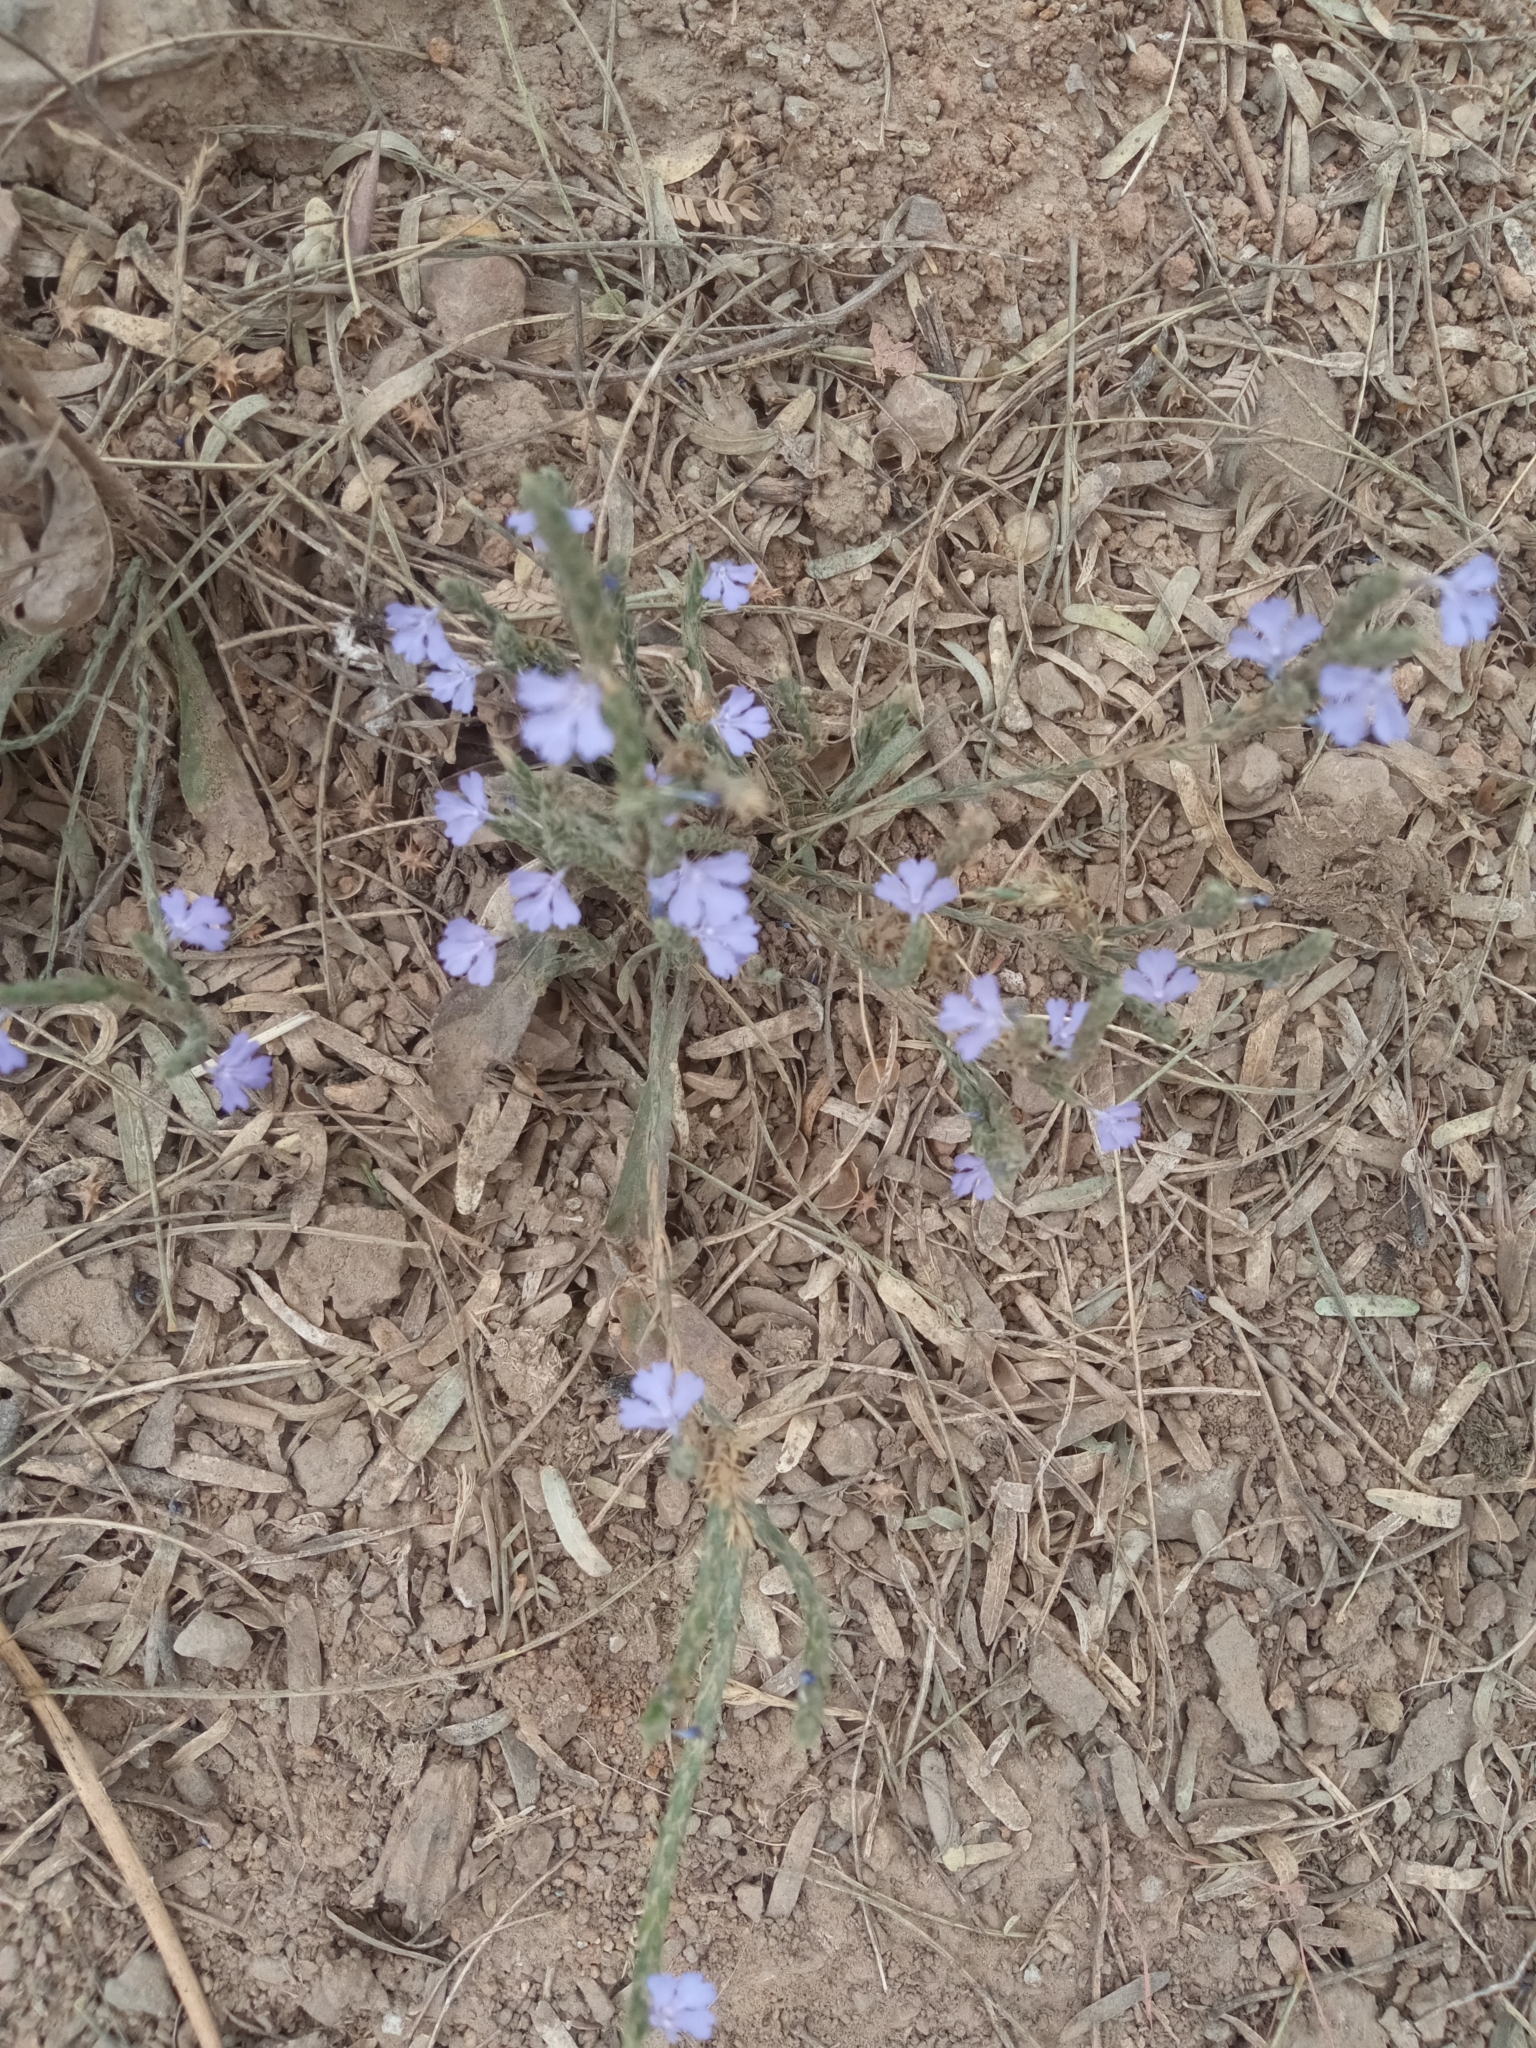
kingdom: Plantae
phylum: Tracheophyta
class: Magnoliopsida
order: Lamiales
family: Acanthaceae
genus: Elytraria
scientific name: Elytraria imbricata
